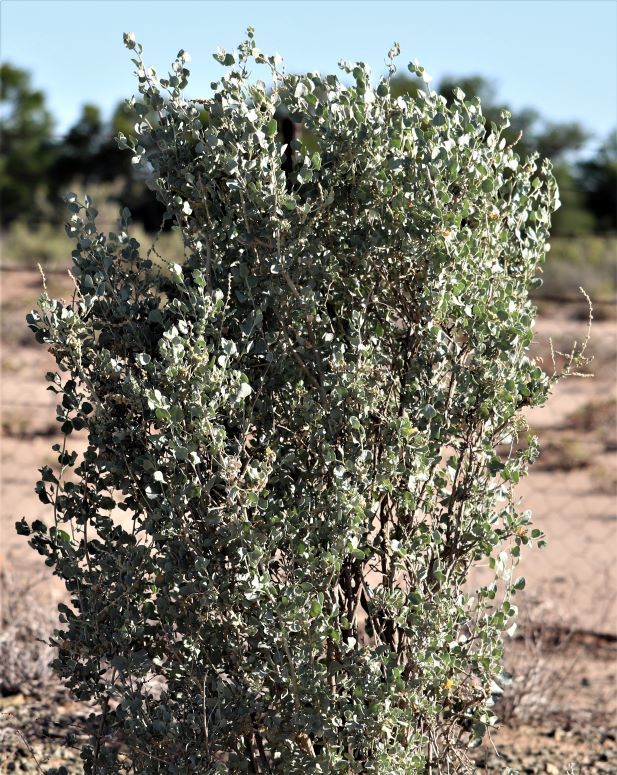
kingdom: Plantae
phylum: Tracheophyta
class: Magnoliopsida
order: Caryophyllales
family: Amaranthaceae
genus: Atriplex
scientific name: Atriplex nummularia
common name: Bluegreen saltbush
